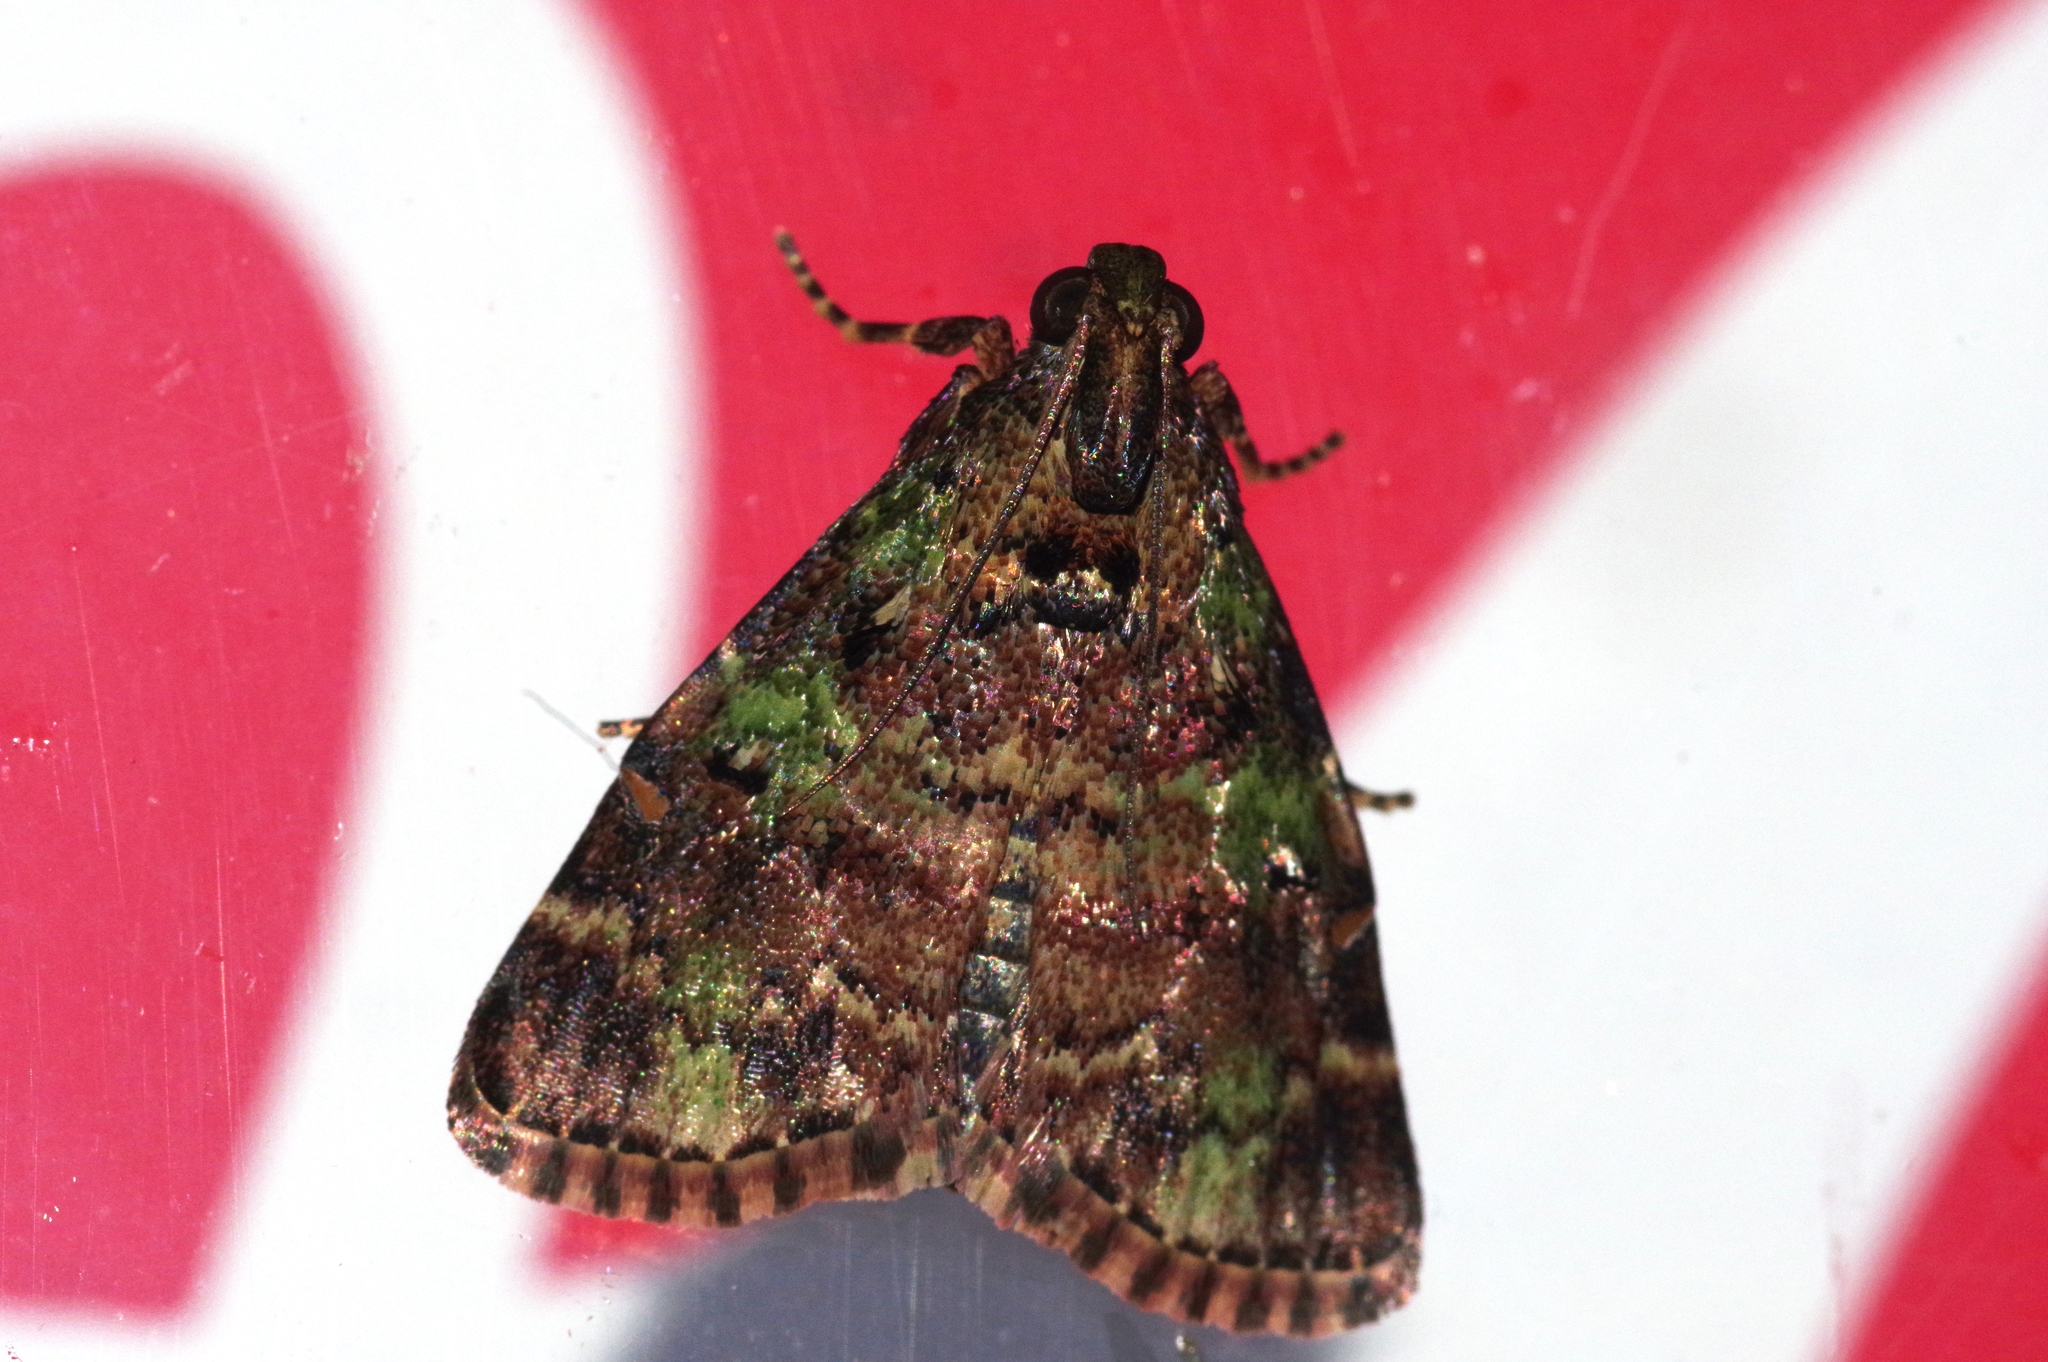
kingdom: Animalia
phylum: Arthropoda
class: Insecta
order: Lepidoptera
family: Pyralidae
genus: Orthaga
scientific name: Orthaga olivacea
